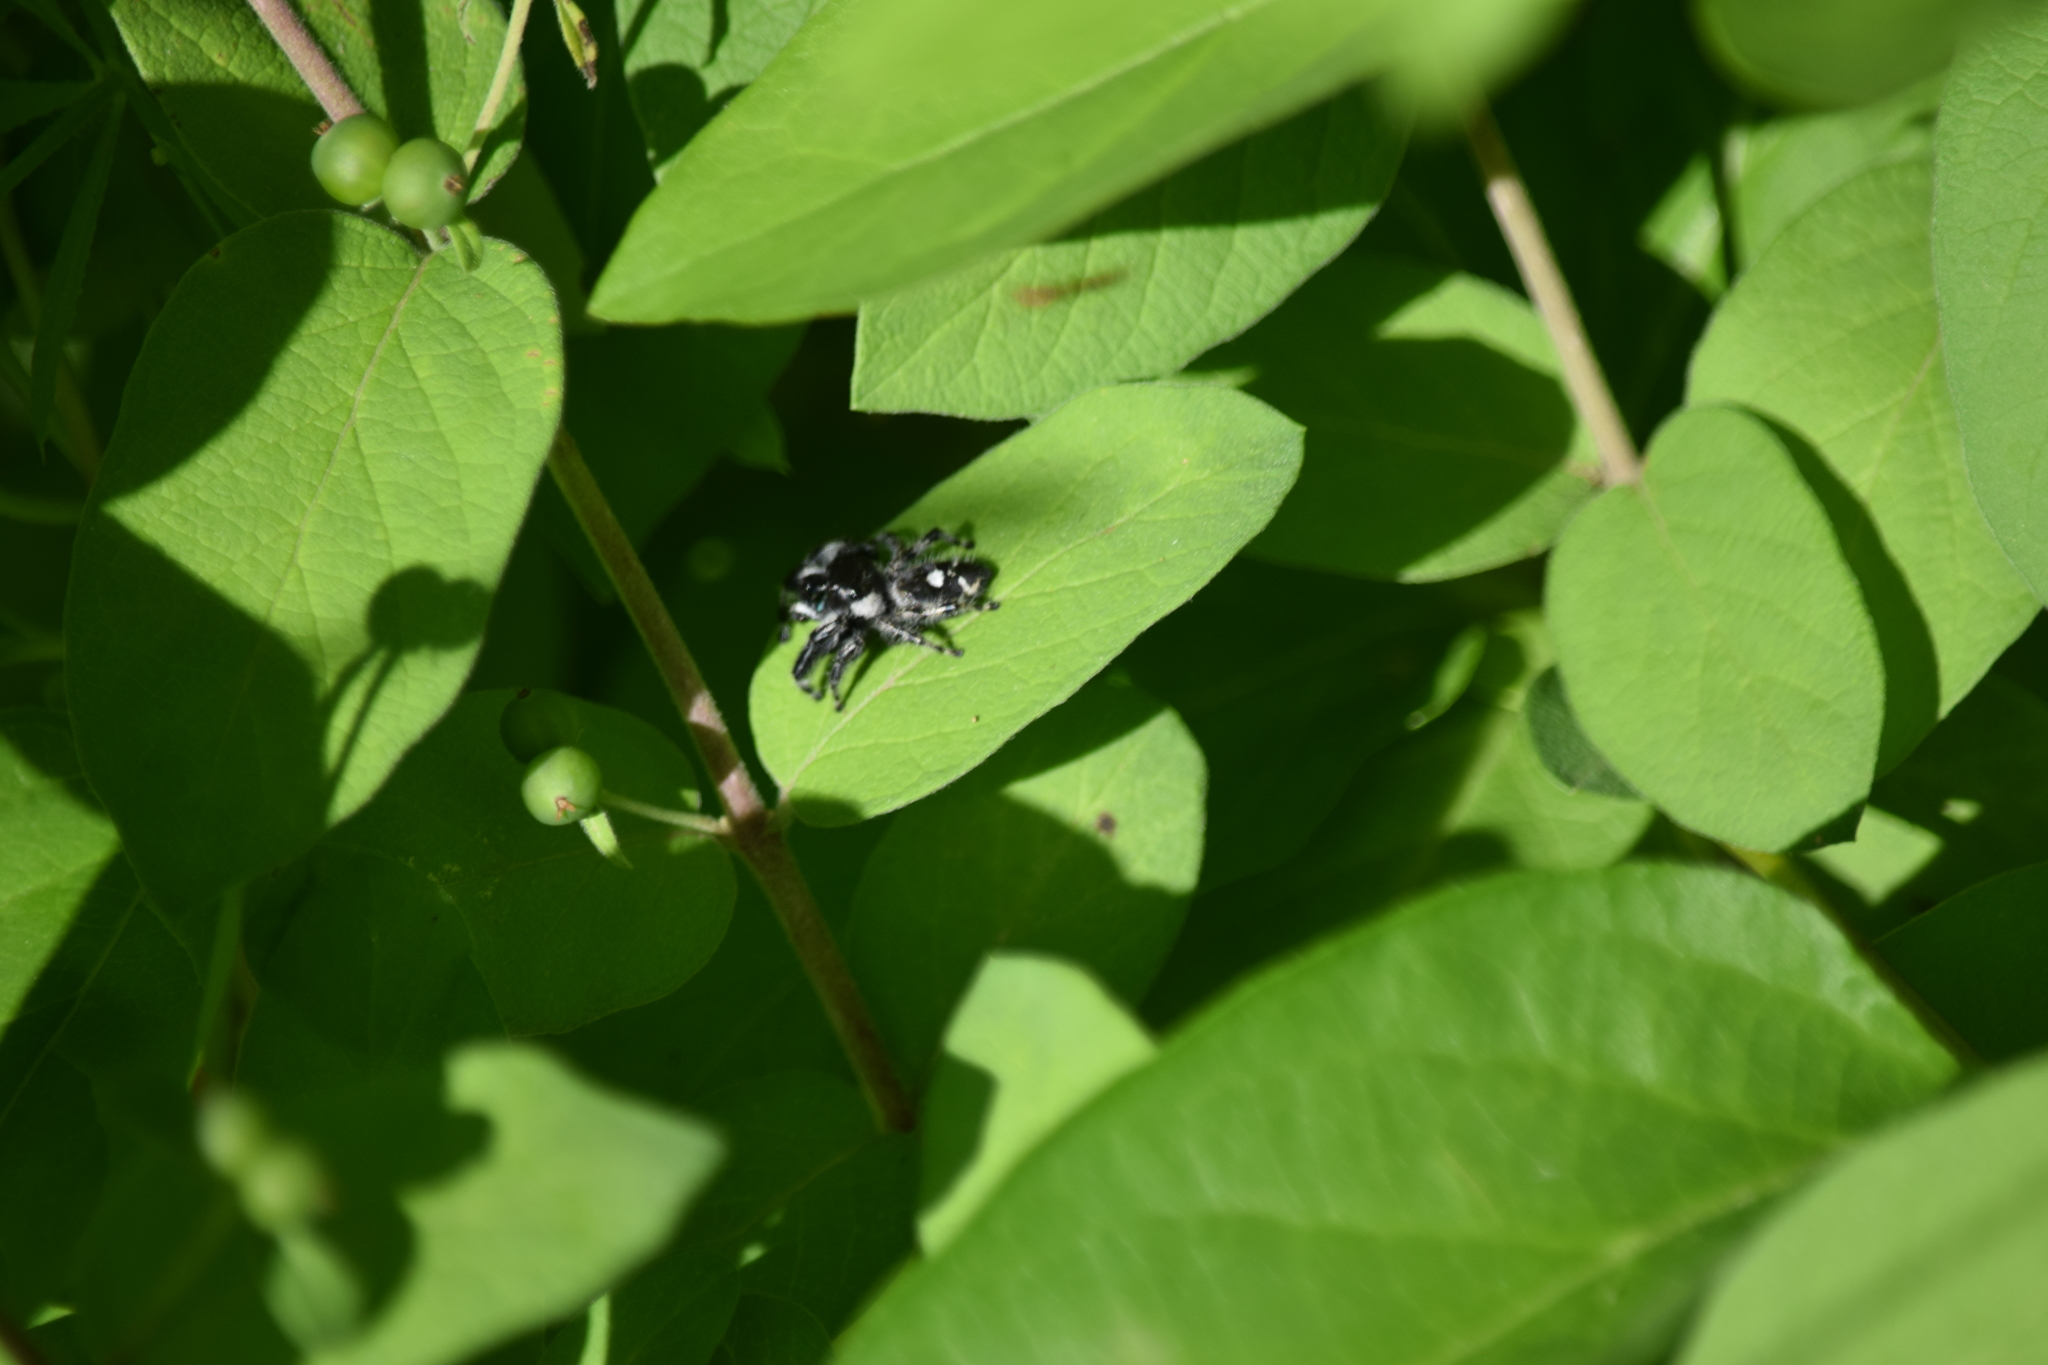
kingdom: Animalia
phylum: Arthropoda
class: Arachnida
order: Araneae
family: Salticidae
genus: Phidippus
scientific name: Phidippus audax
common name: Bold jumper
